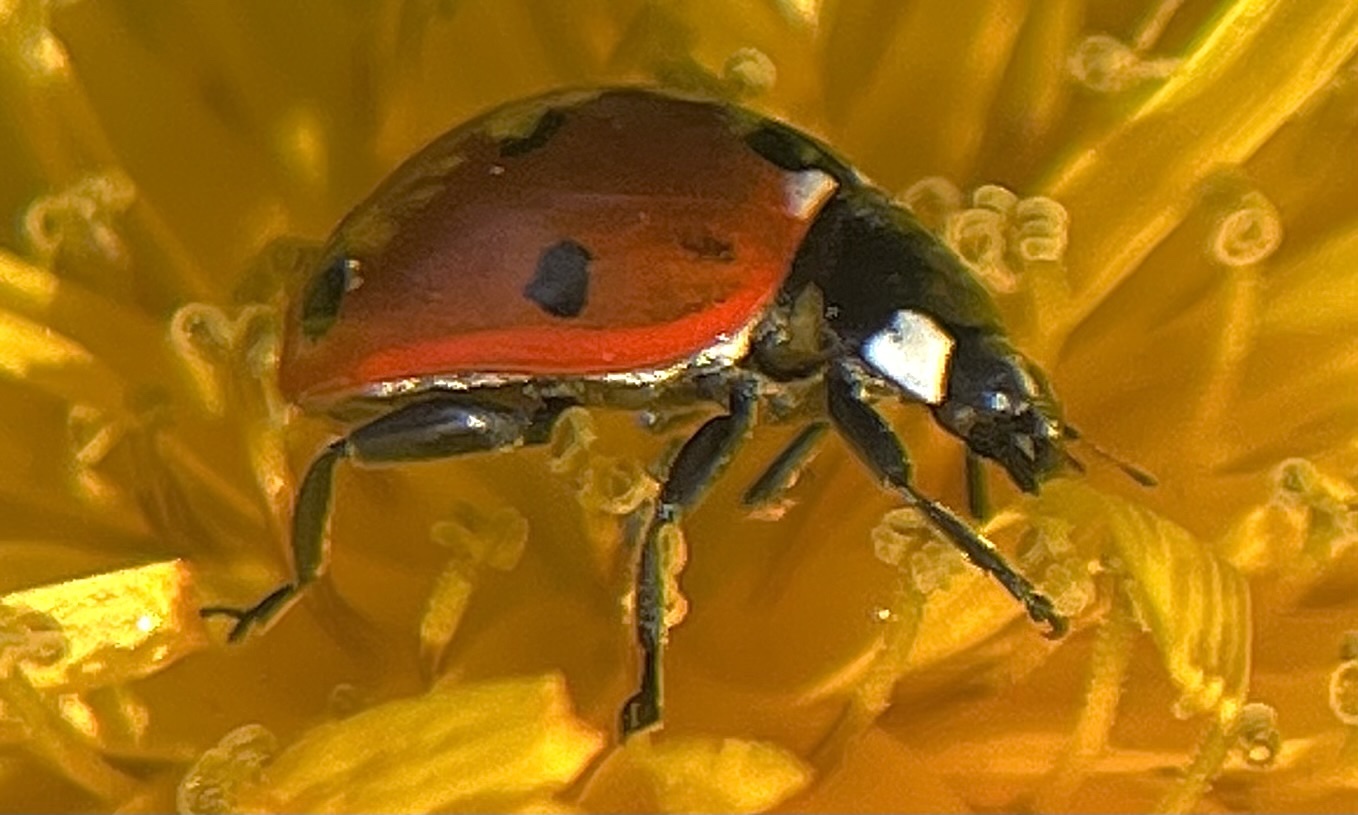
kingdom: Animalia
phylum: Arthropoda
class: Insecta
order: Coleoptera
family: Coccinellidae
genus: Coccinella
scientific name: Coccinella septempunctata
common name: Sevenspotted lady beetle
